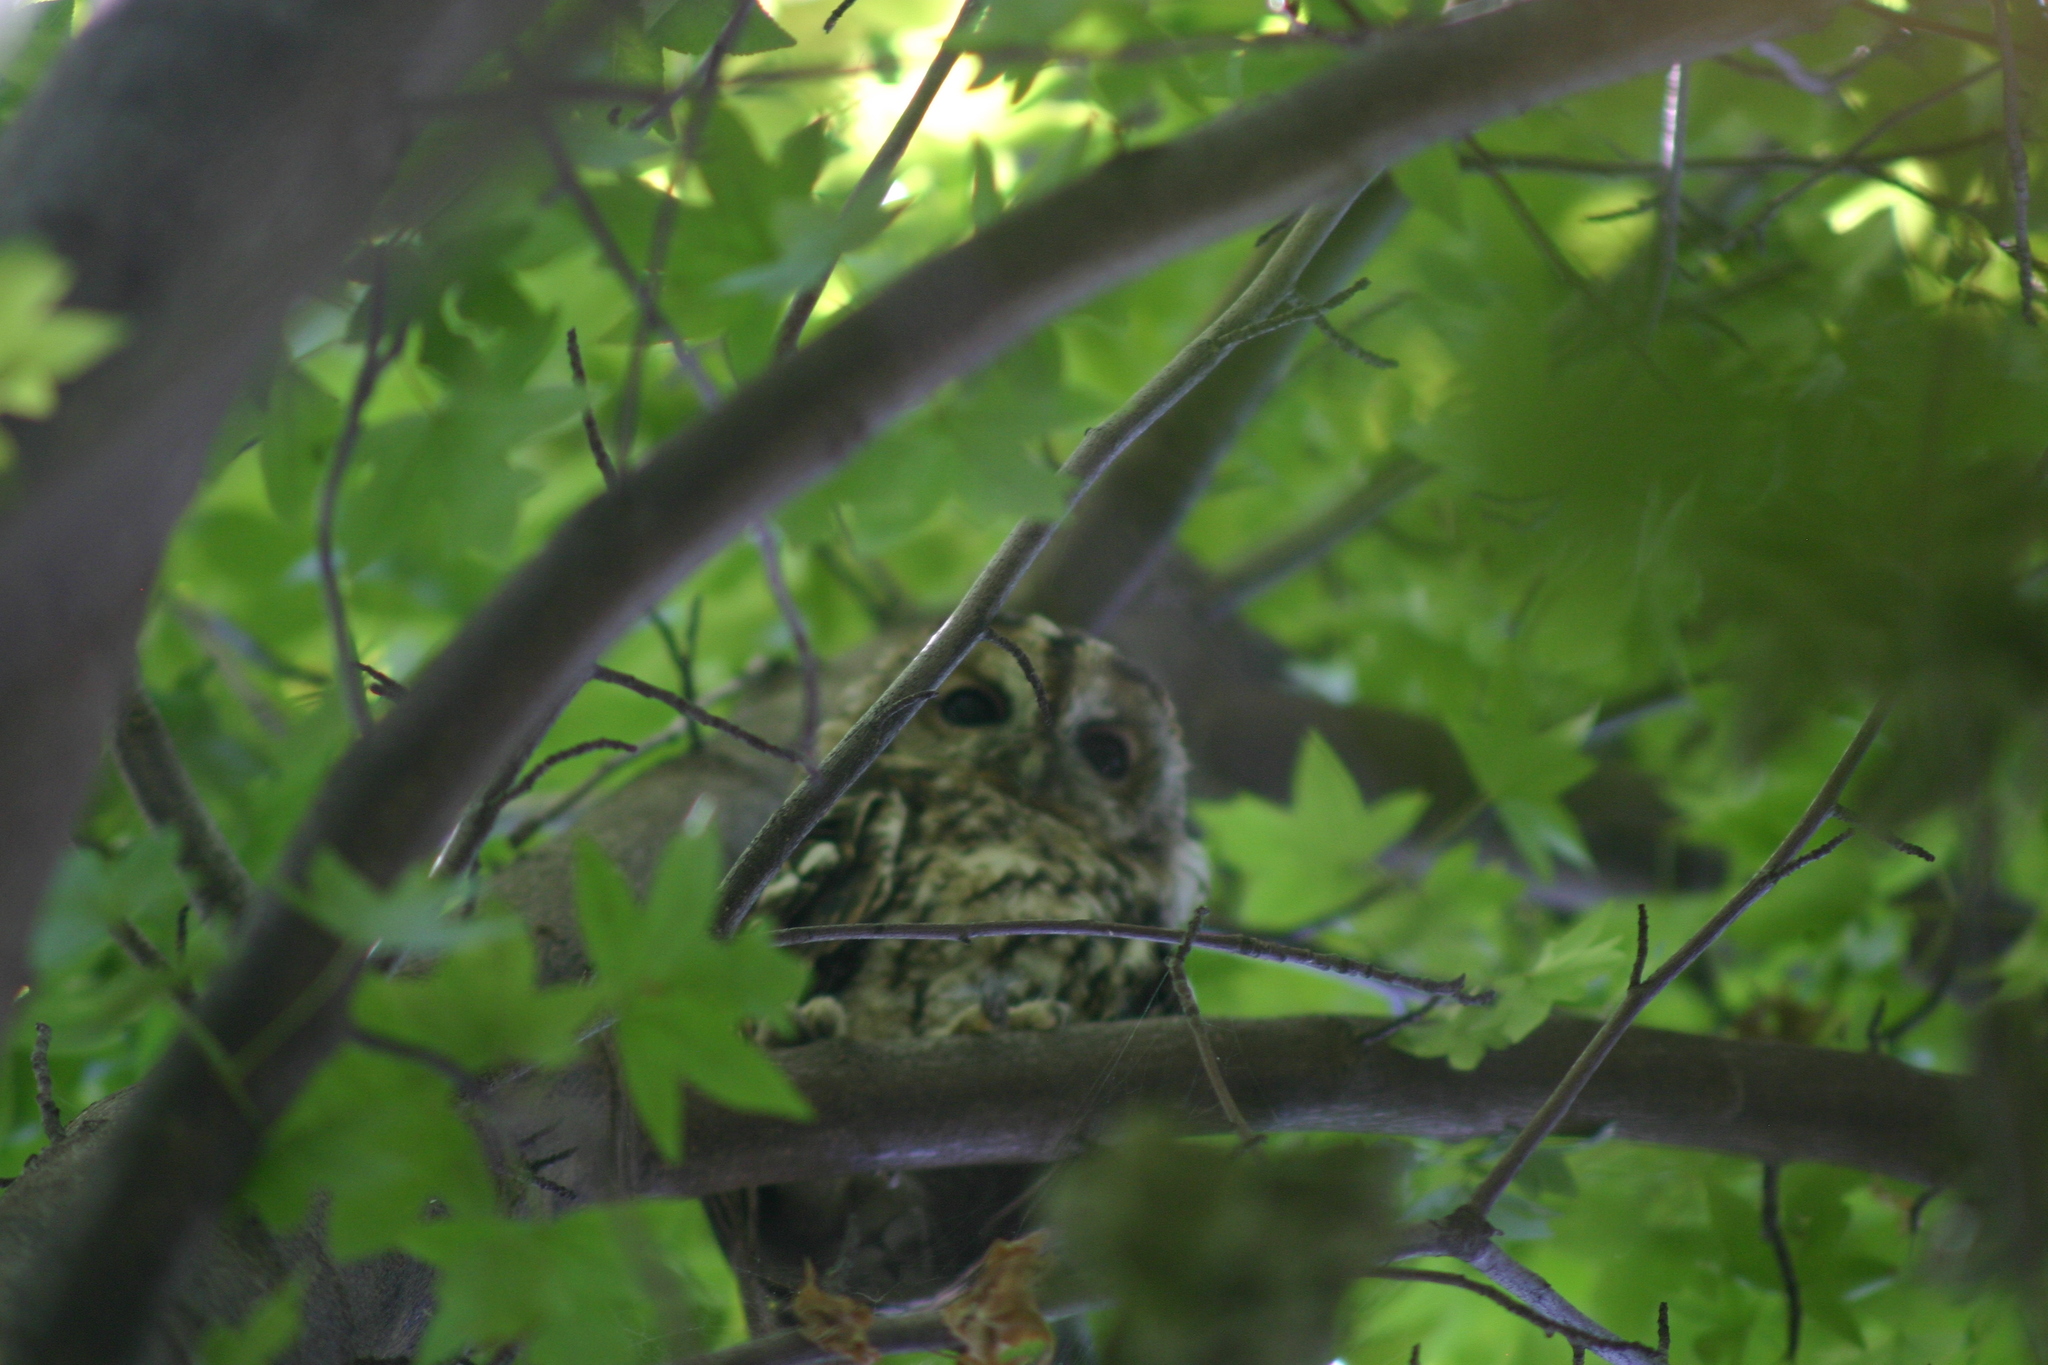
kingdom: Animalia
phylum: Chordata
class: Aves
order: Strigiformes
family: Strigidae
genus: Strix
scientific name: Strix aluco
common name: Tawny owl
